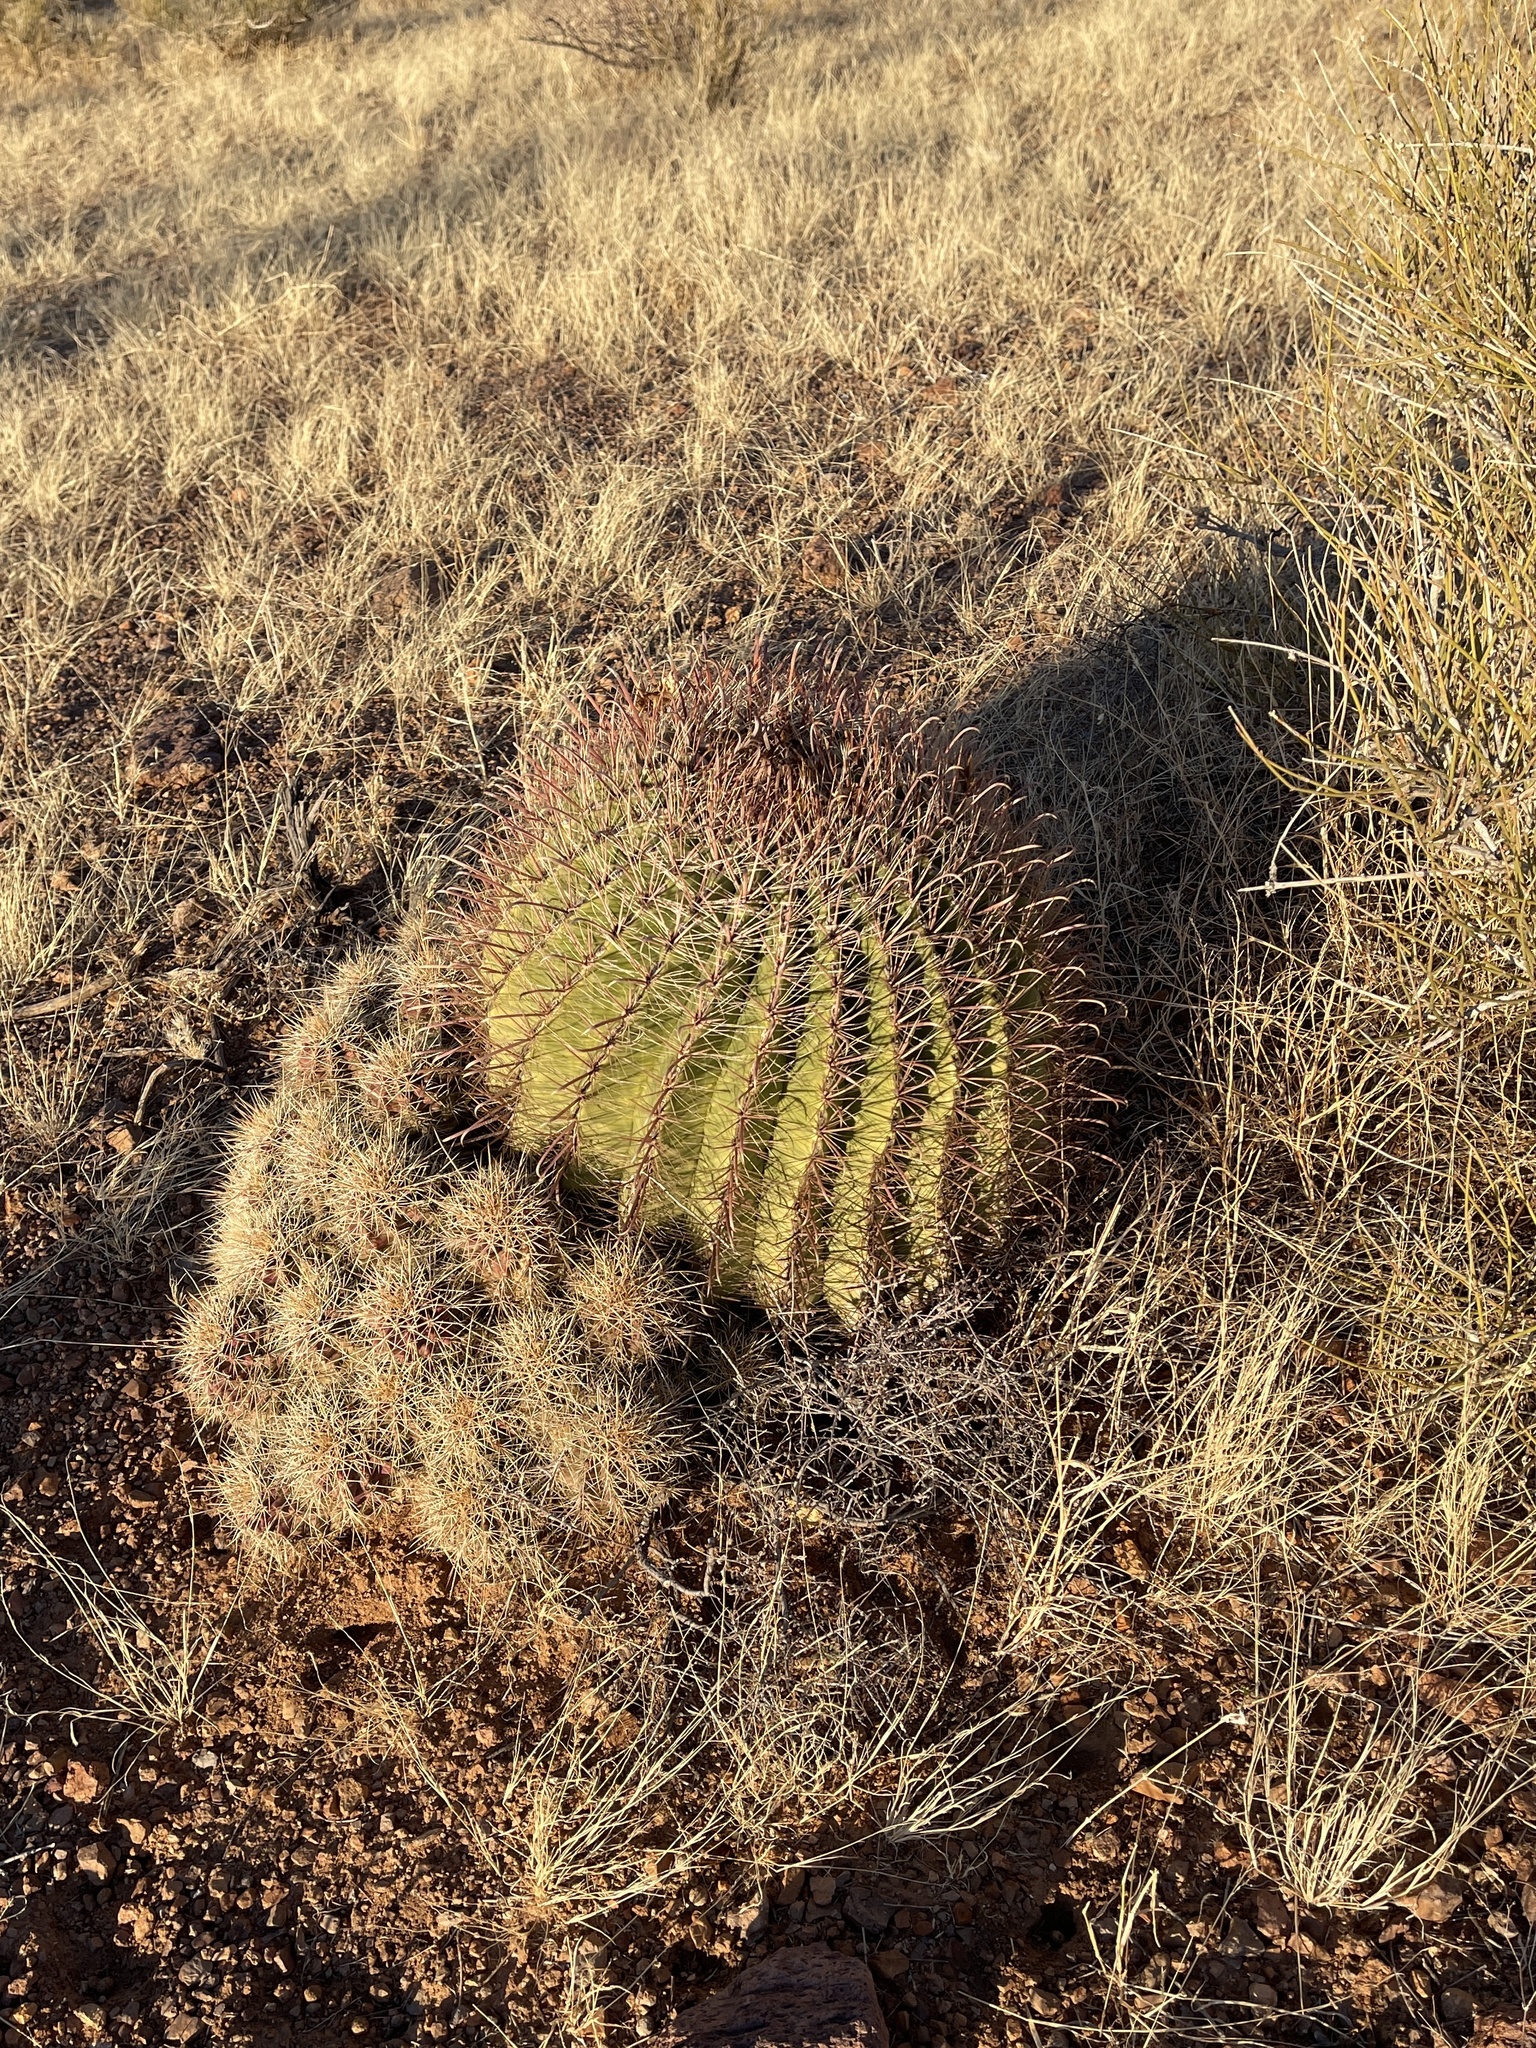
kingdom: Plantae
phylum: Tracheophyta
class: Magnoliopsida
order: Caryophyllales
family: Cactaceae
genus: Ferocactus
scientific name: Ferocactus wislizeni
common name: Candy barrel cactus
